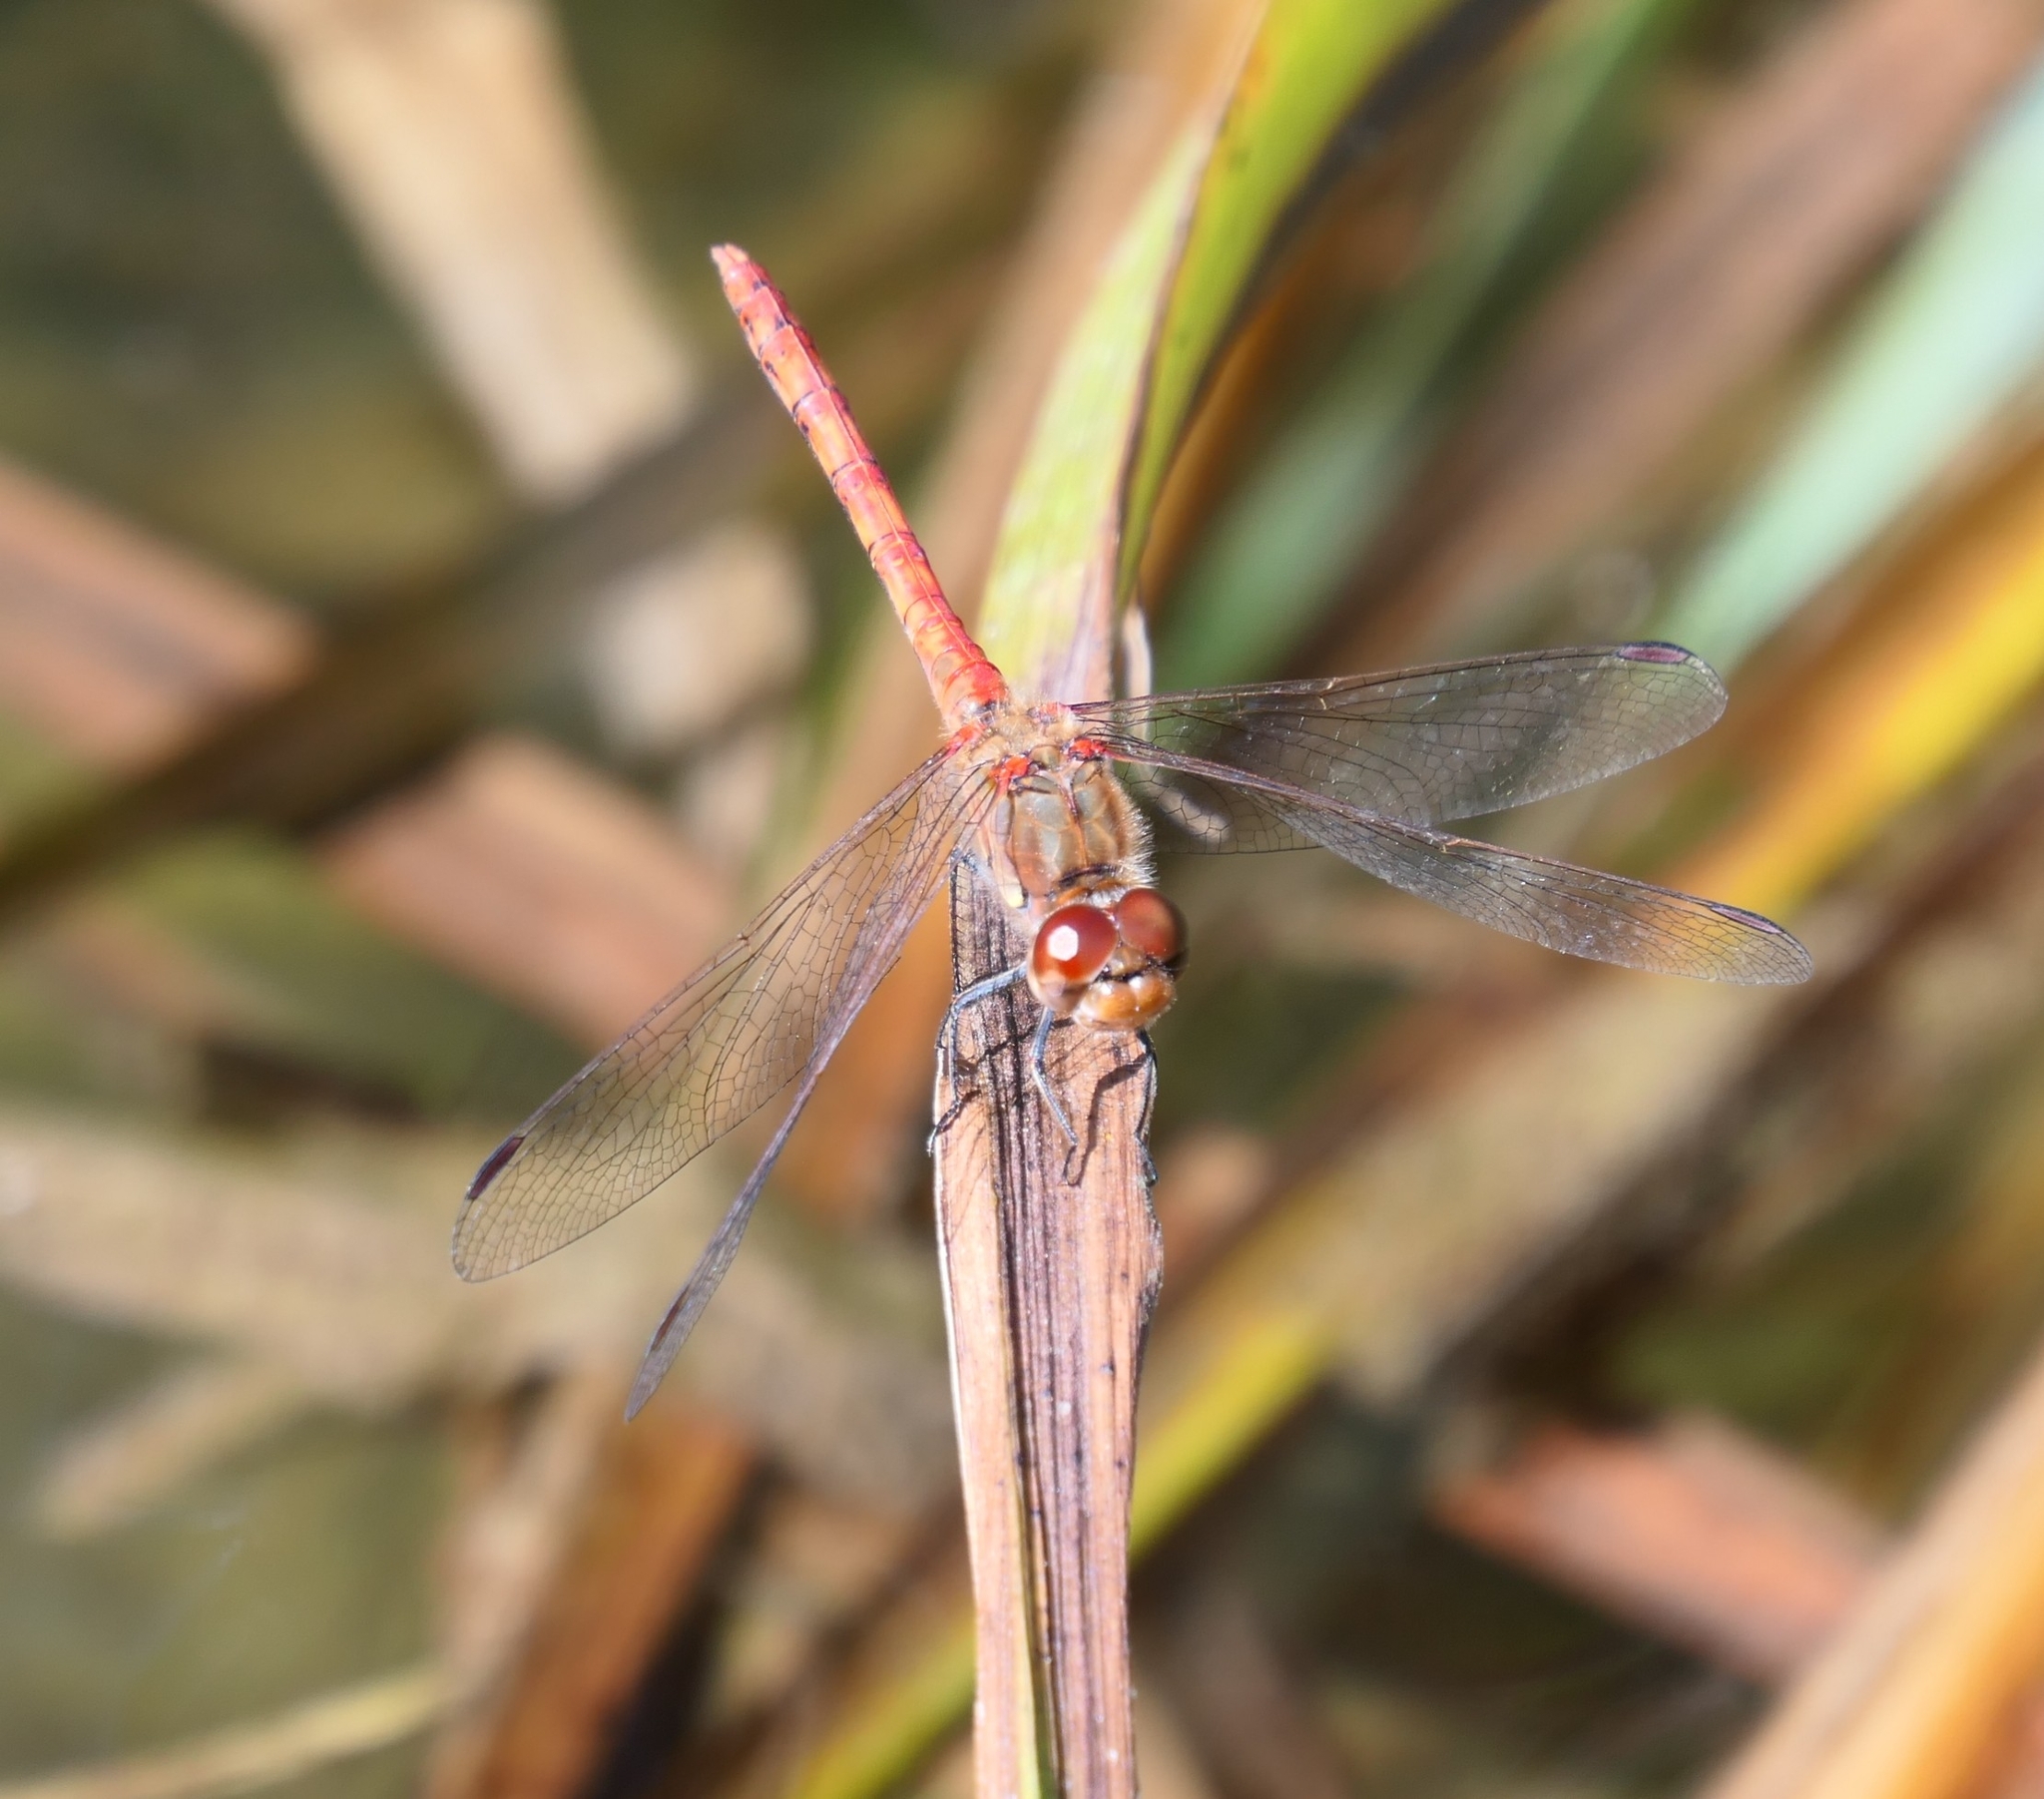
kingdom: Animalia
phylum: Arthropoda
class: Insecta
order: Odonata
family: Libellulidae
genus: Sympetrum
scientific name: Sympetrum striolatum
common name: Common darter
